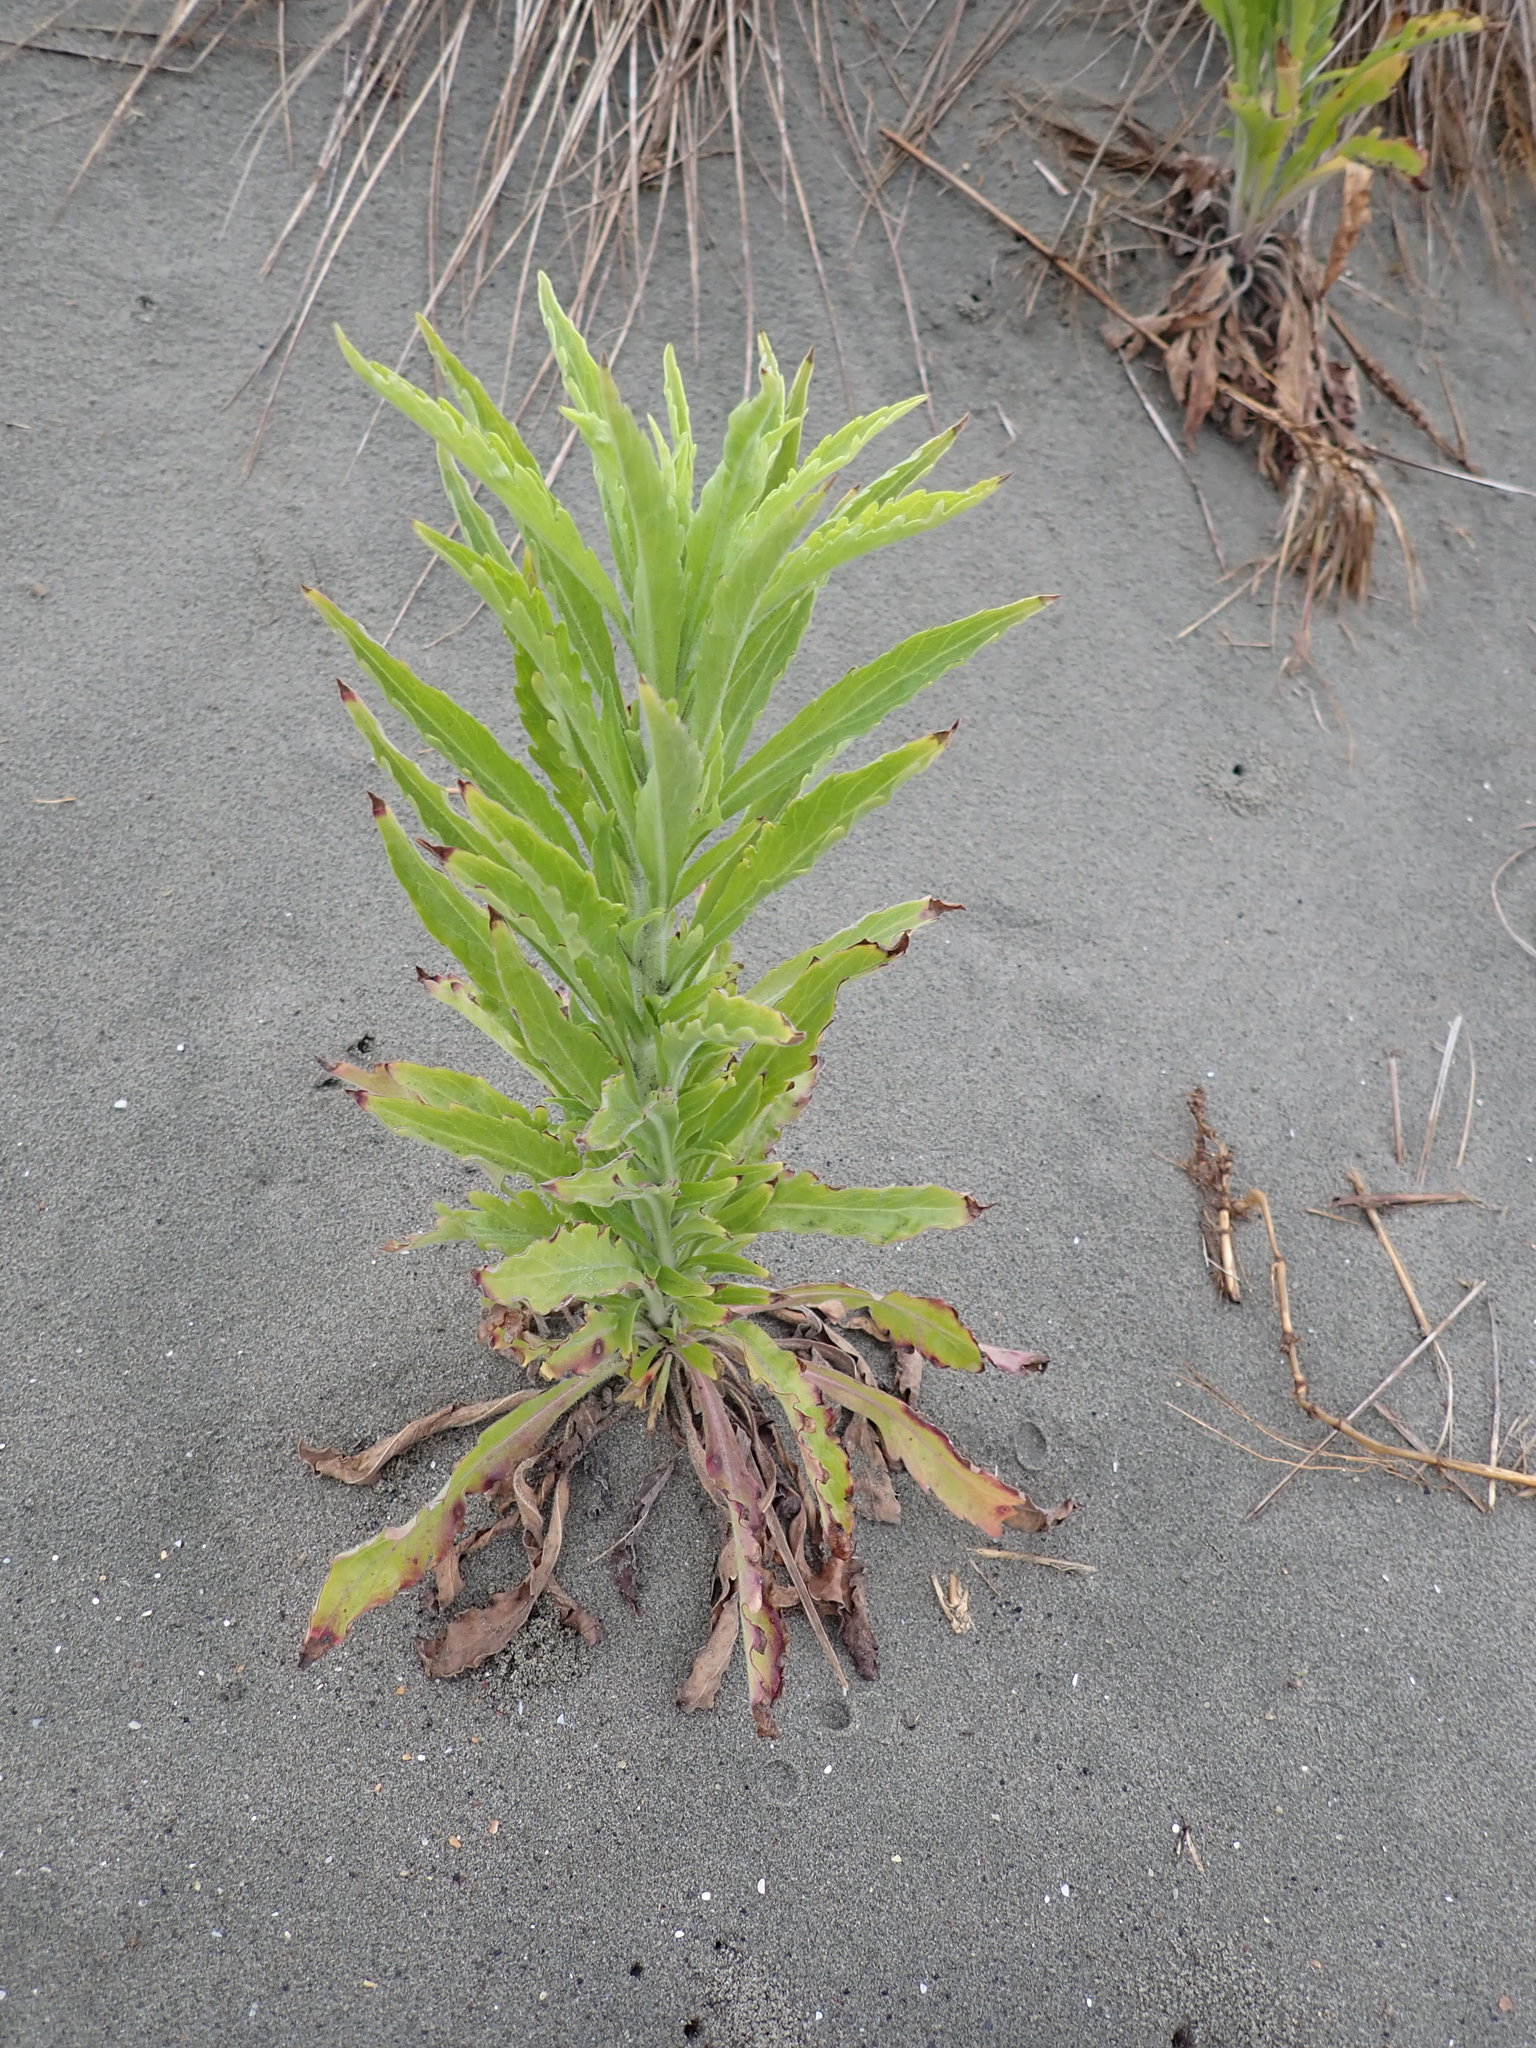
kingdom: Plantae
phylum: Tracheophyta
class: Magnoliopsida
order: Asterales
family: Asteraceae
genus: Erigeron
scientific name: Erigeron sumatrensis
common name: Daisy
